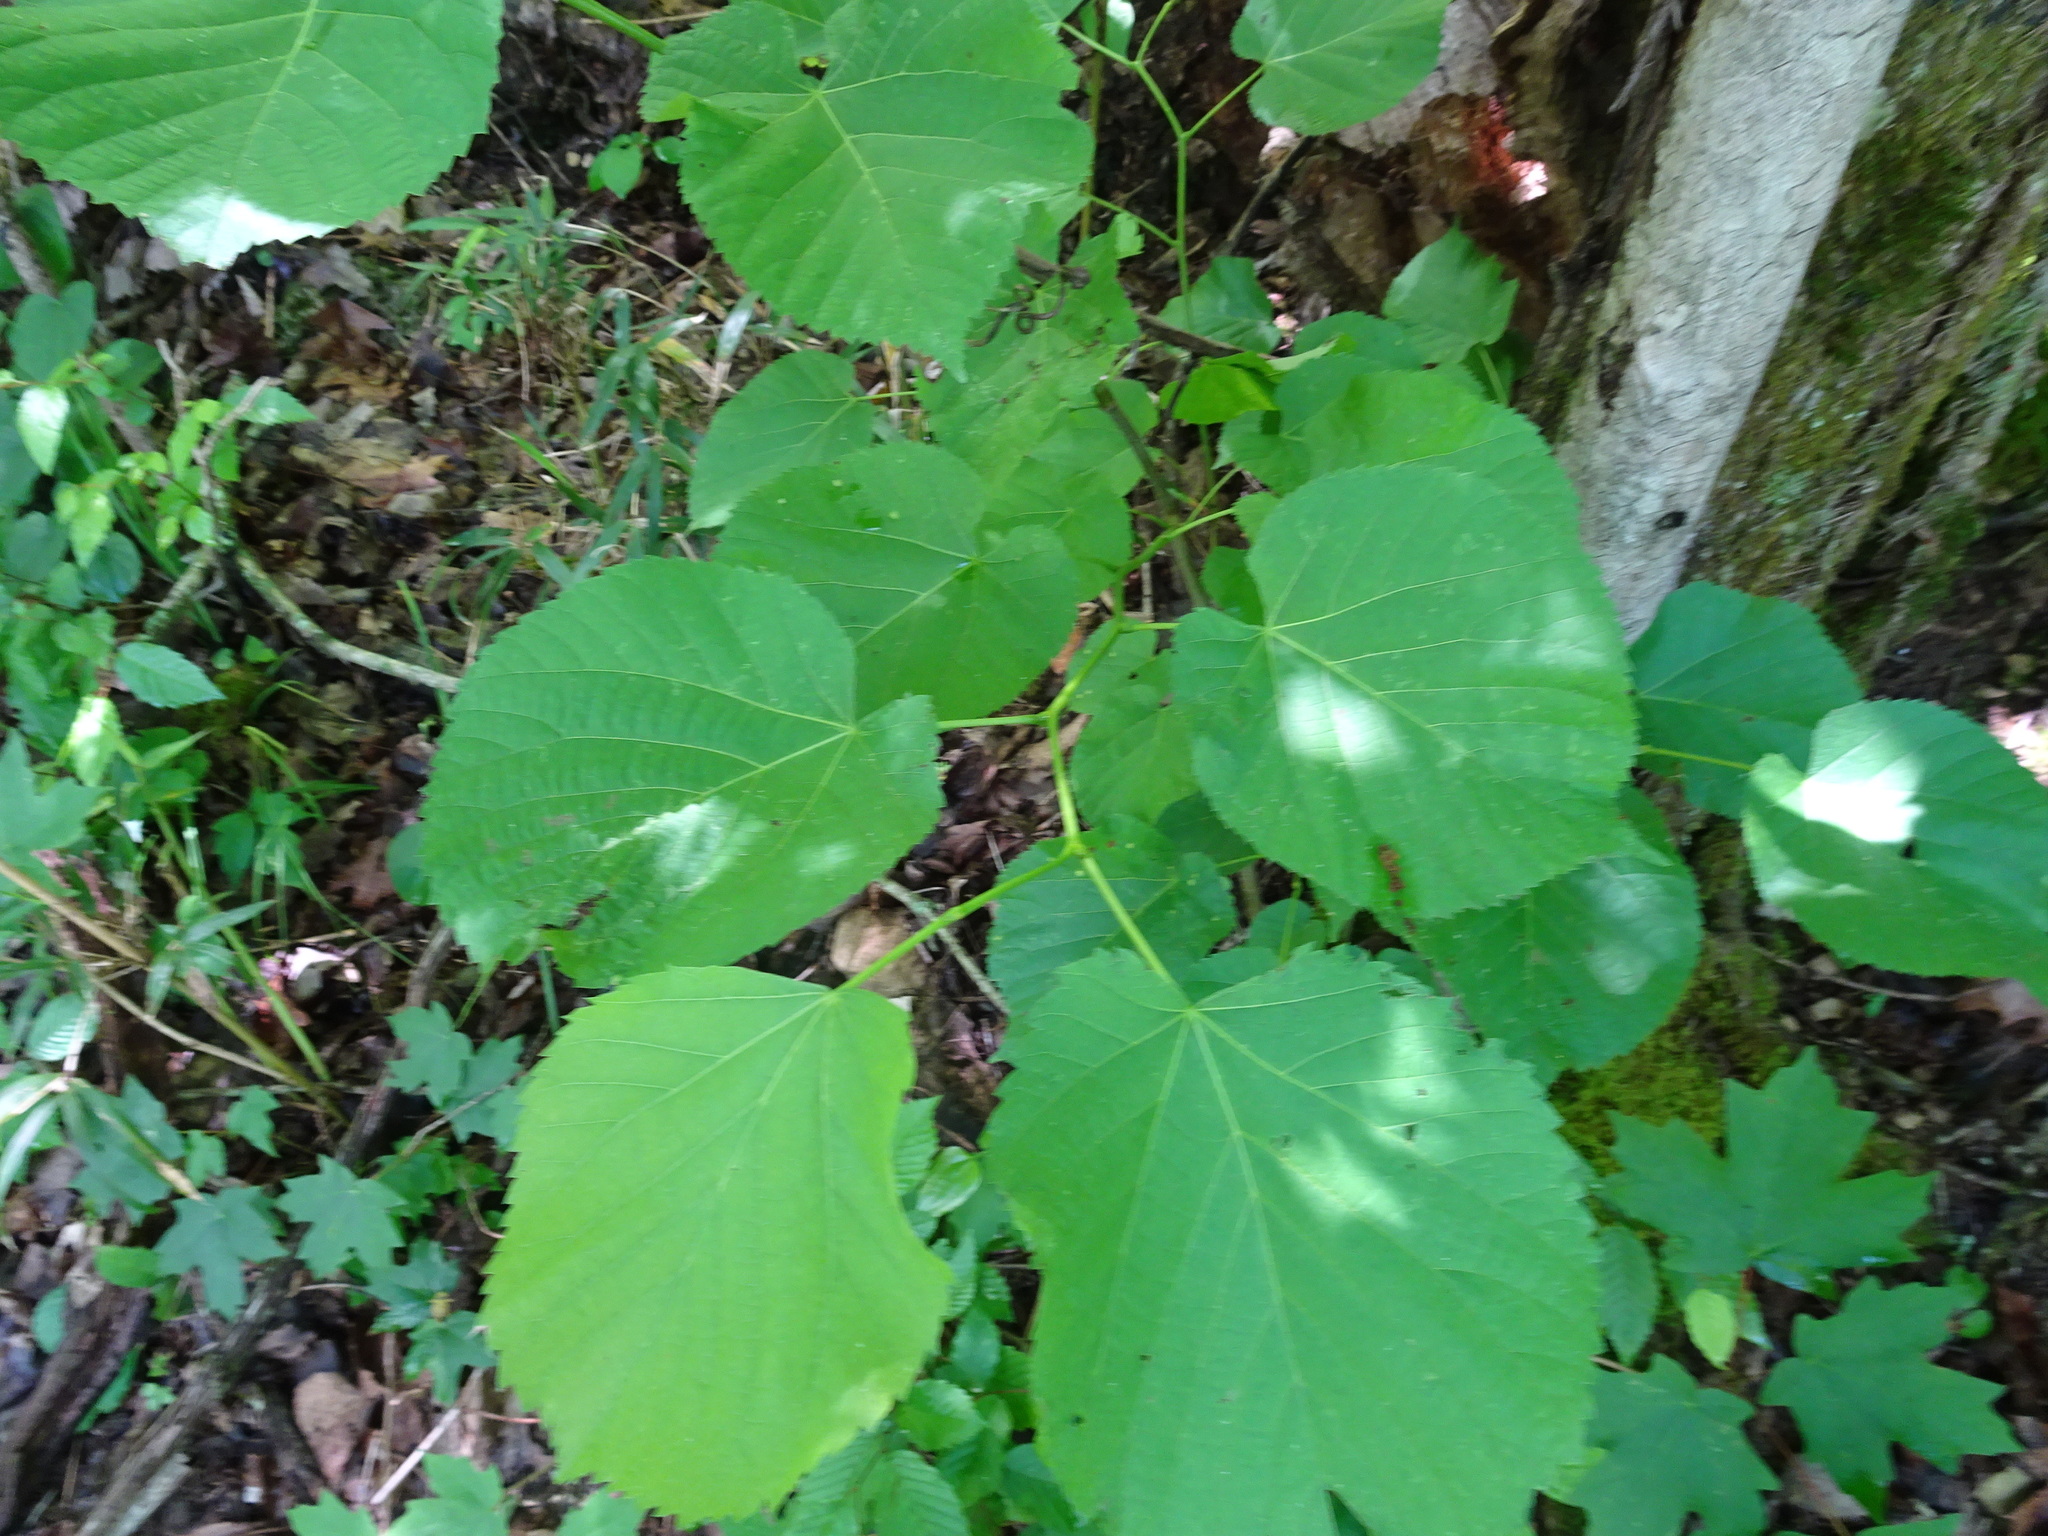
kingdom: Plantae
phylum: Tracheophyta
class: Magnoliopsida
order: Malvales
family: Malvaceae
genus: Tilia
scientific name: Tilia americana
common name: Basswood
